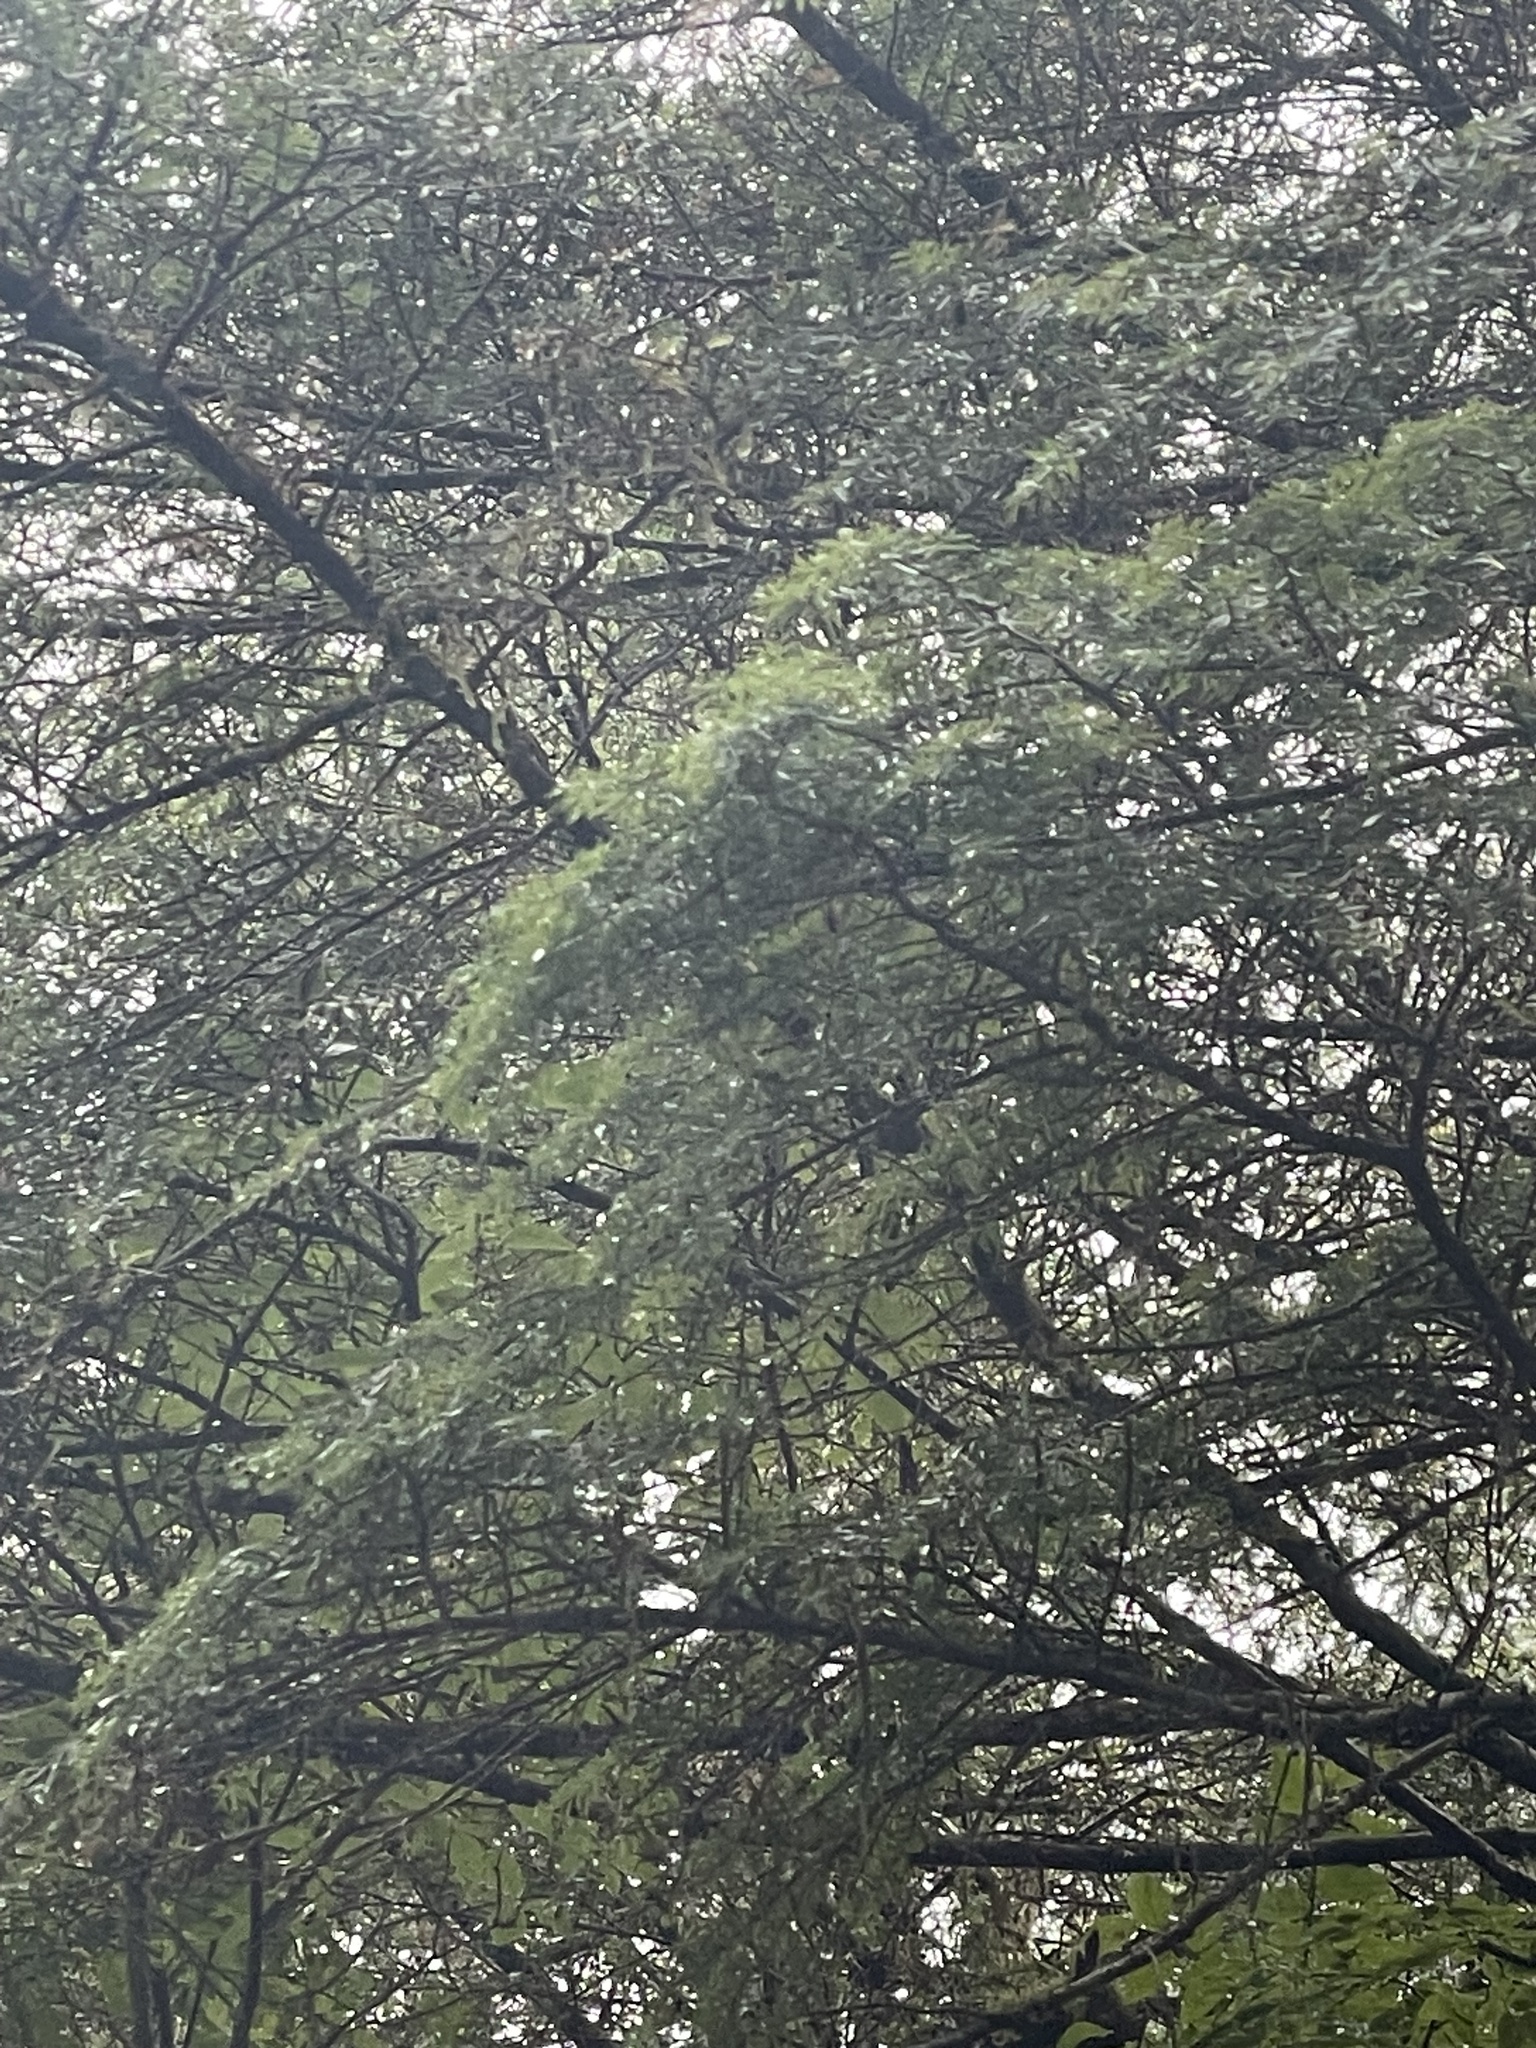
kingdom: Plantae
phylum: Tracheophyta
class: Pinopsida
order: Pinales
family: Pinaceae
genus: Tsuga
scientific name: Tsuga heterophylla
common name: Western hemlock
